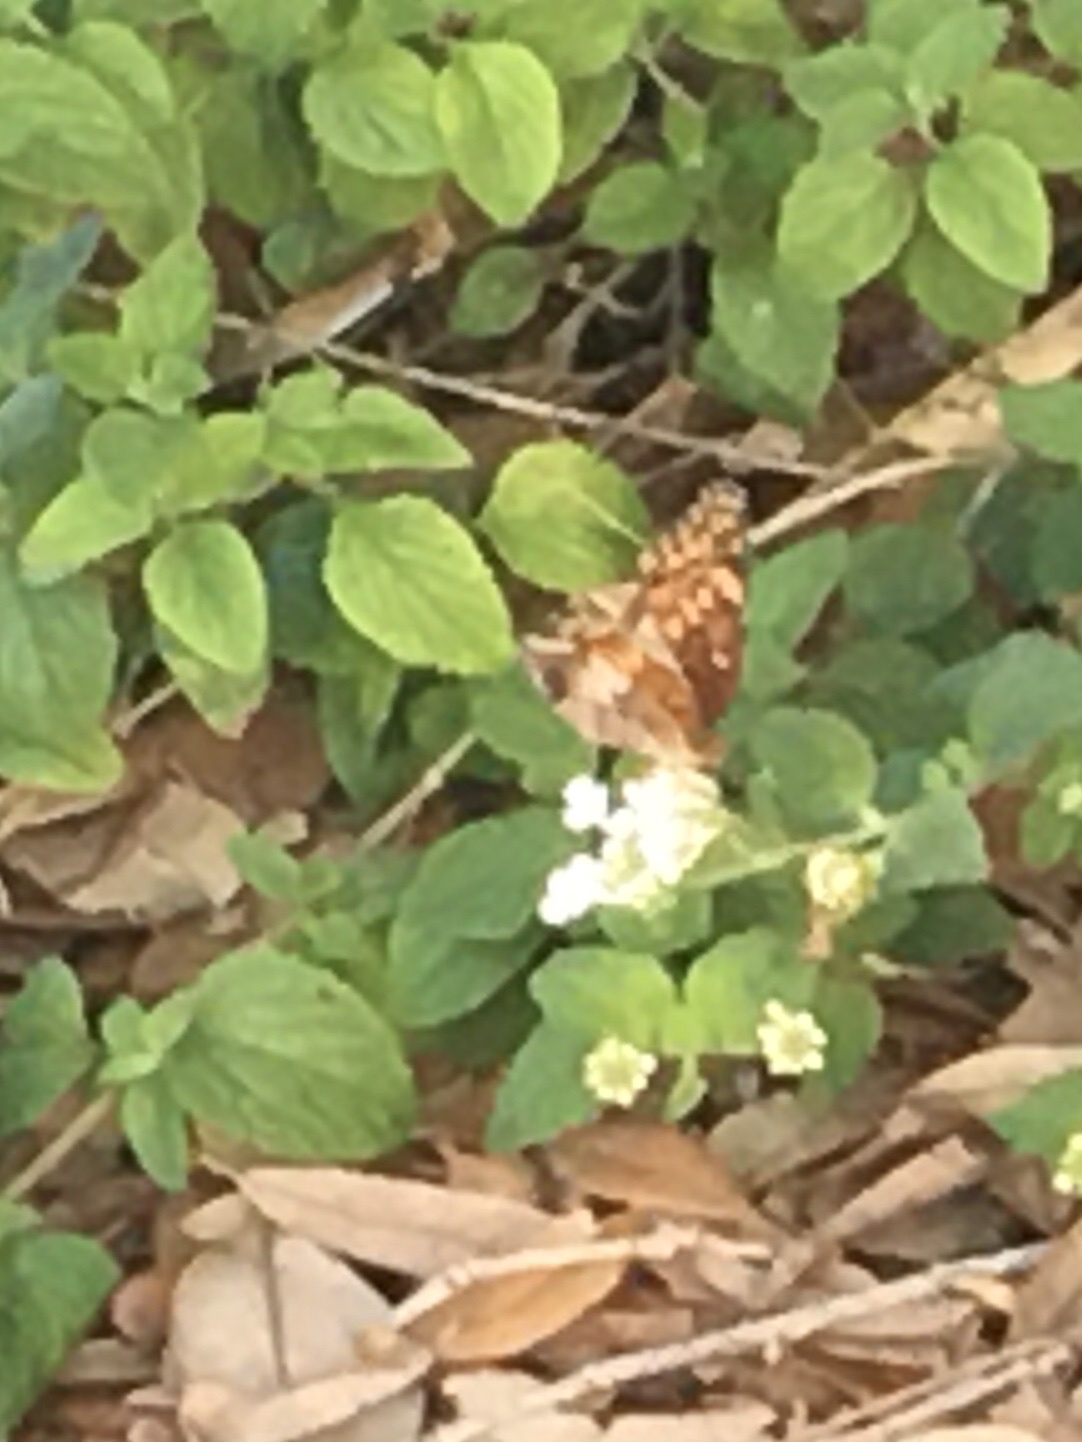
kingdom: Animalia
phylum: Arthropoda
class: Insecta
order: Lepidoptera
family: Nymphalidae
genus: Euptoieta
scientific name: Euptoieta claudia
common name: Variegated fritillary
